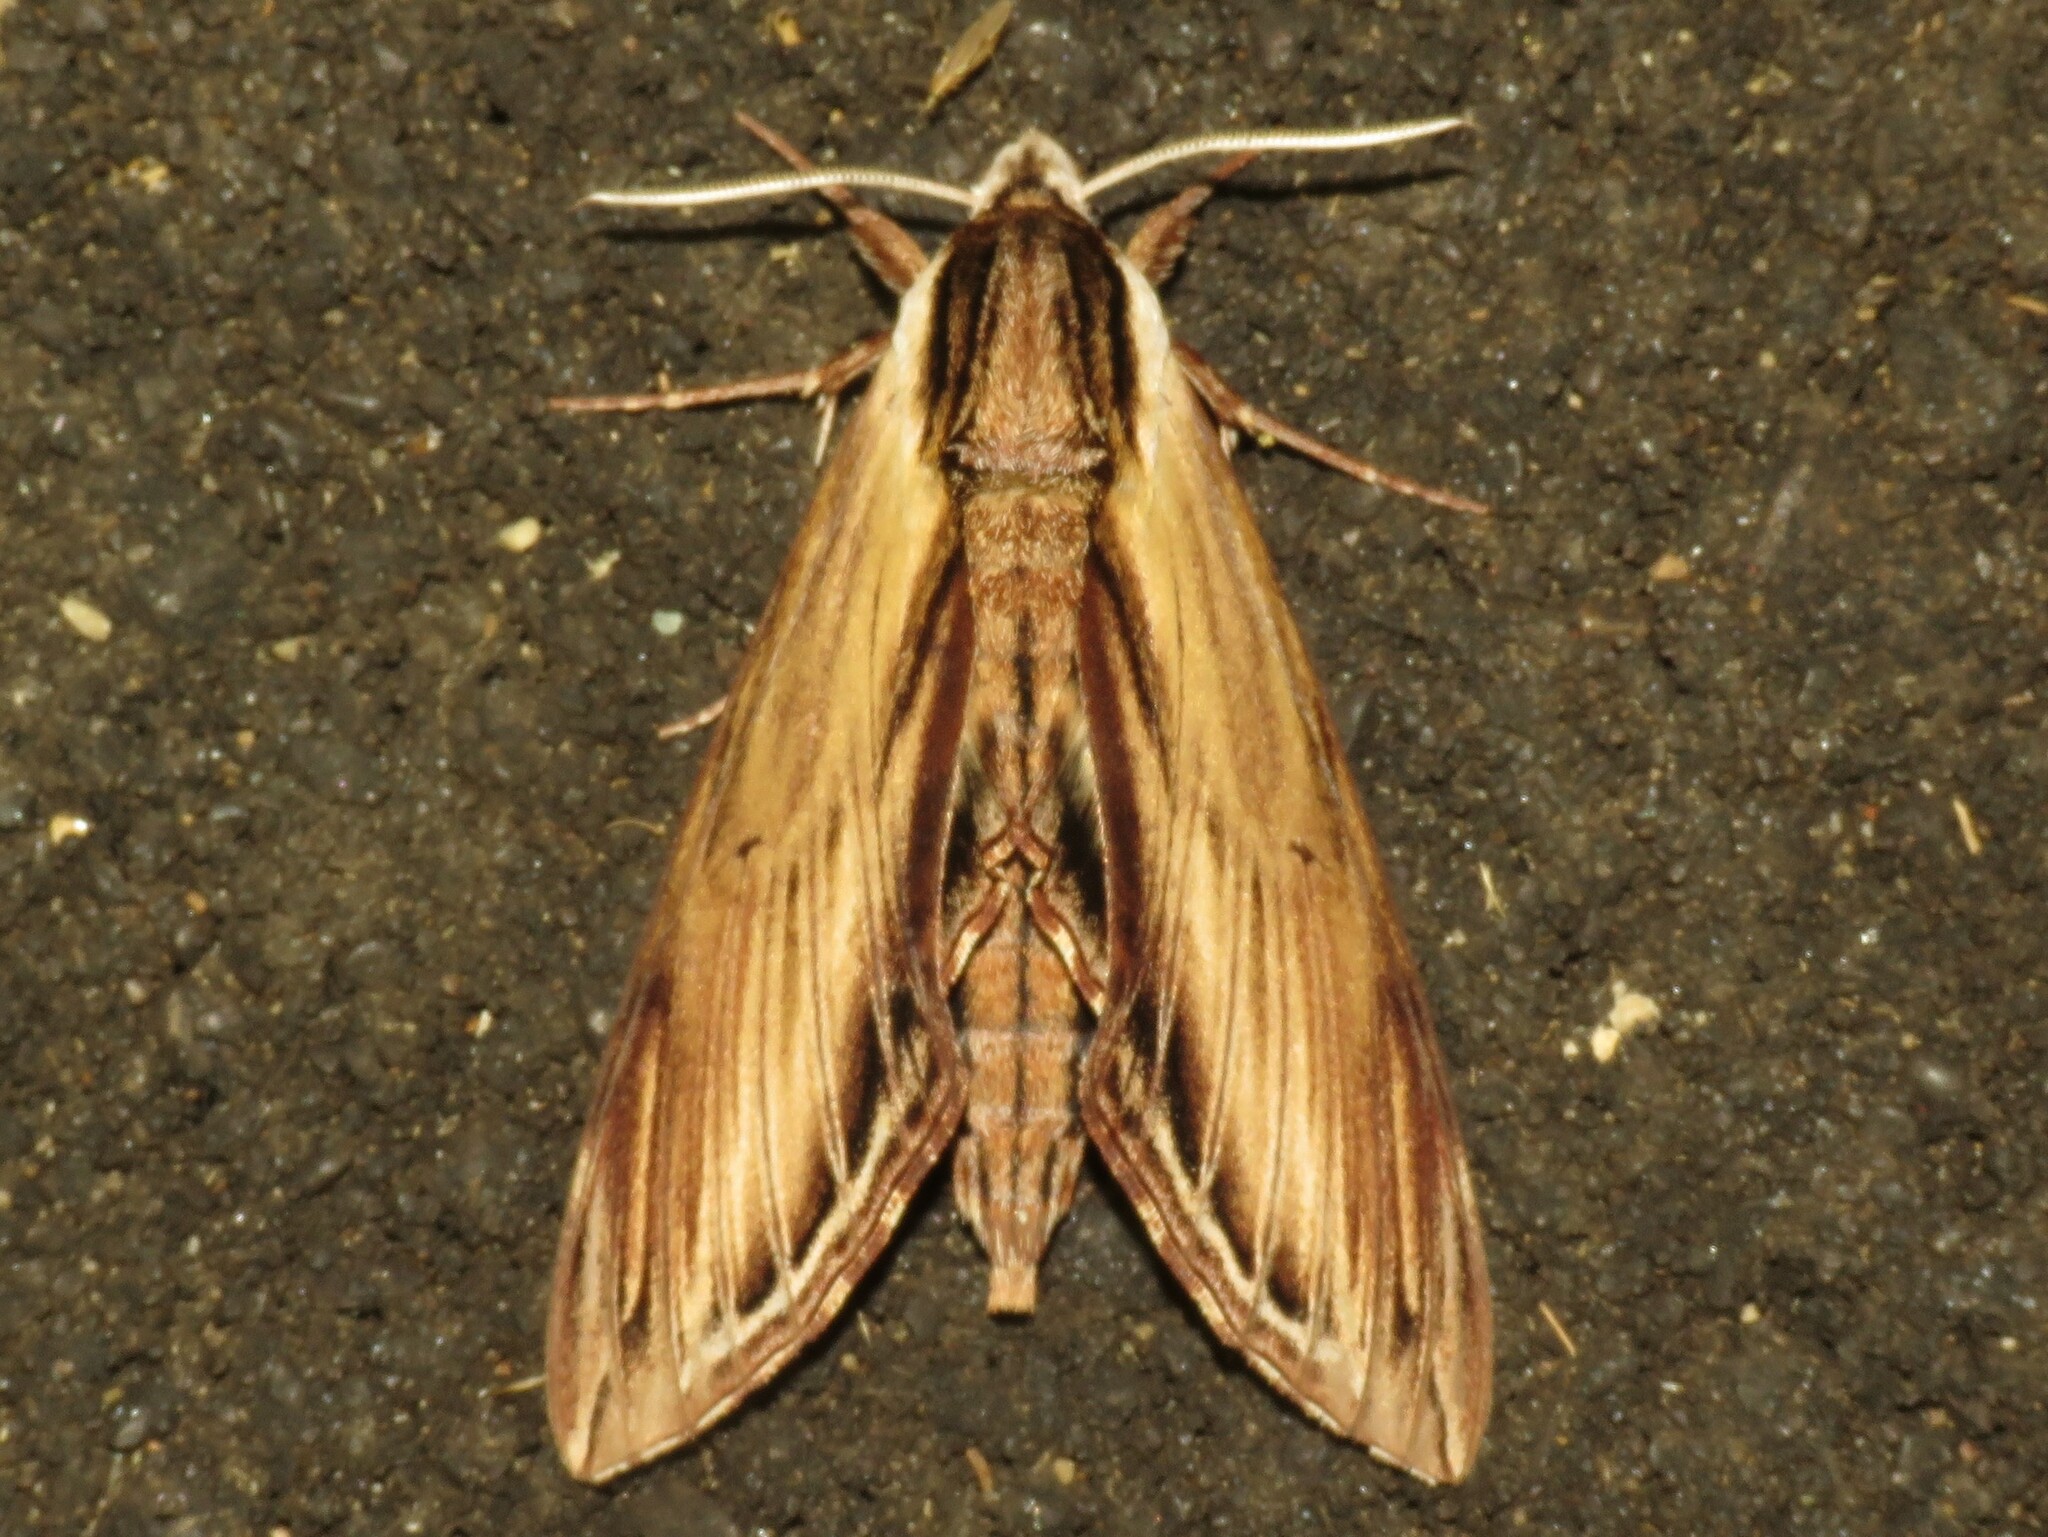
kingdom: Animalia
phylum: Arthropoda
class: Insecta
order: Lepidoptera
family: Sphingidae
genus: Sphinx
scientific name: Sphinx kalmiae
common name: Laurel sphinx
